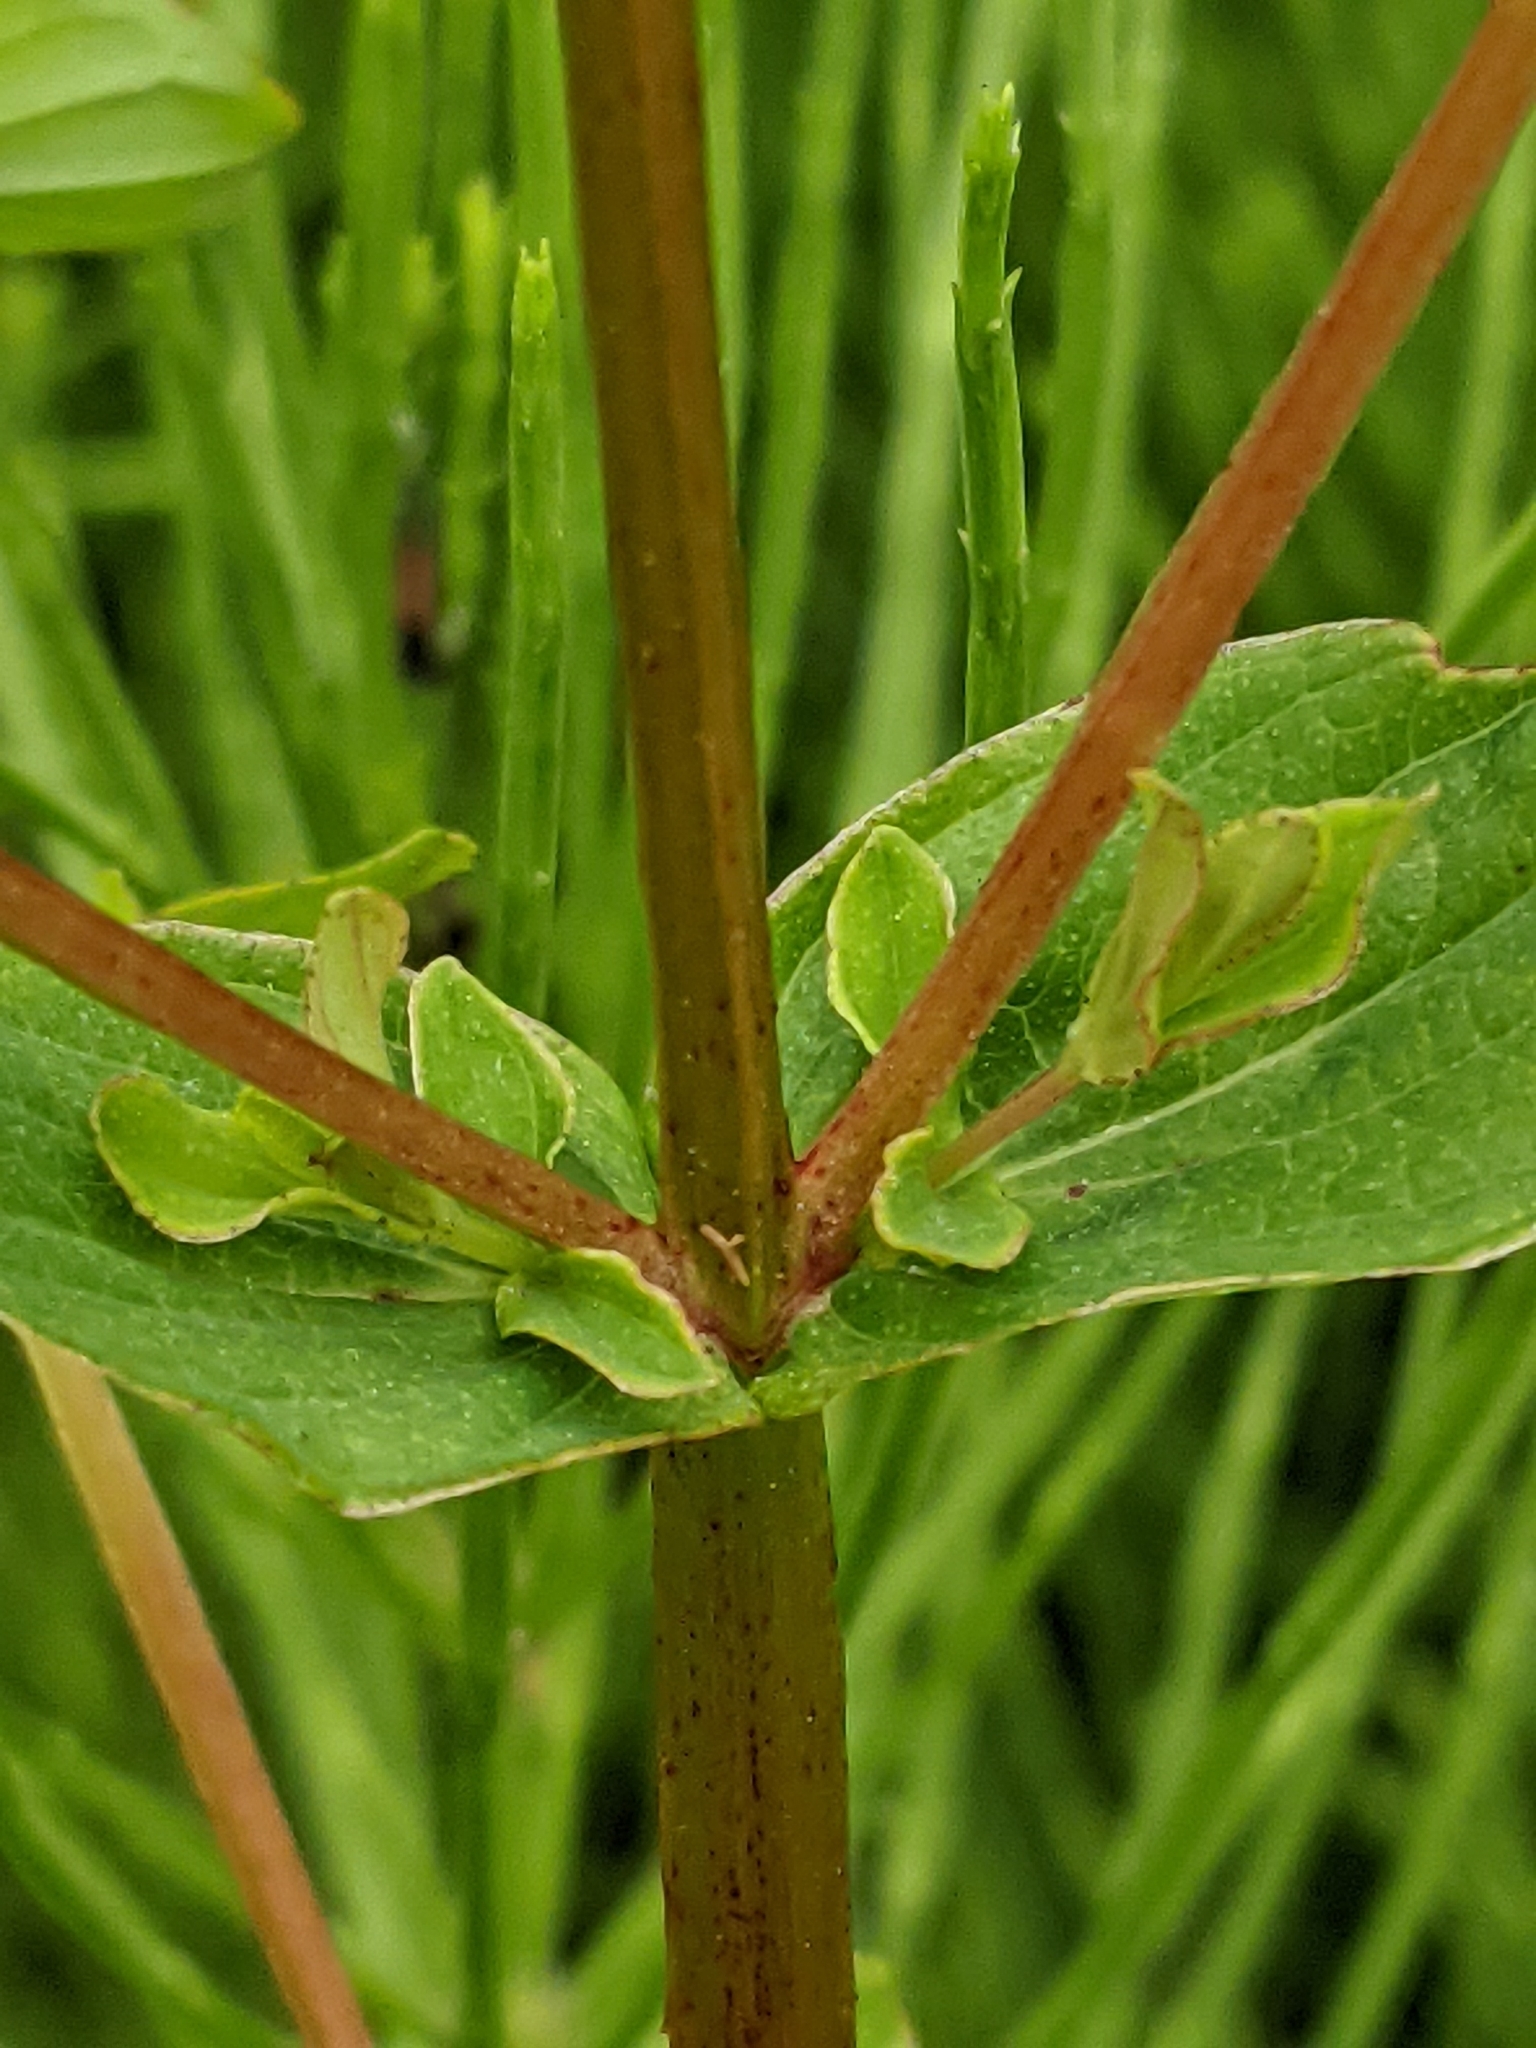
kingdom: Plantae
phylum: Tracheophyta
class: Magnoliopsida
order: Malpighiales
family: Hypericaceae
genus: Hypericum
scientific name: Hypericum tetrapterum
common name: Square-stalked st. john's-wort
